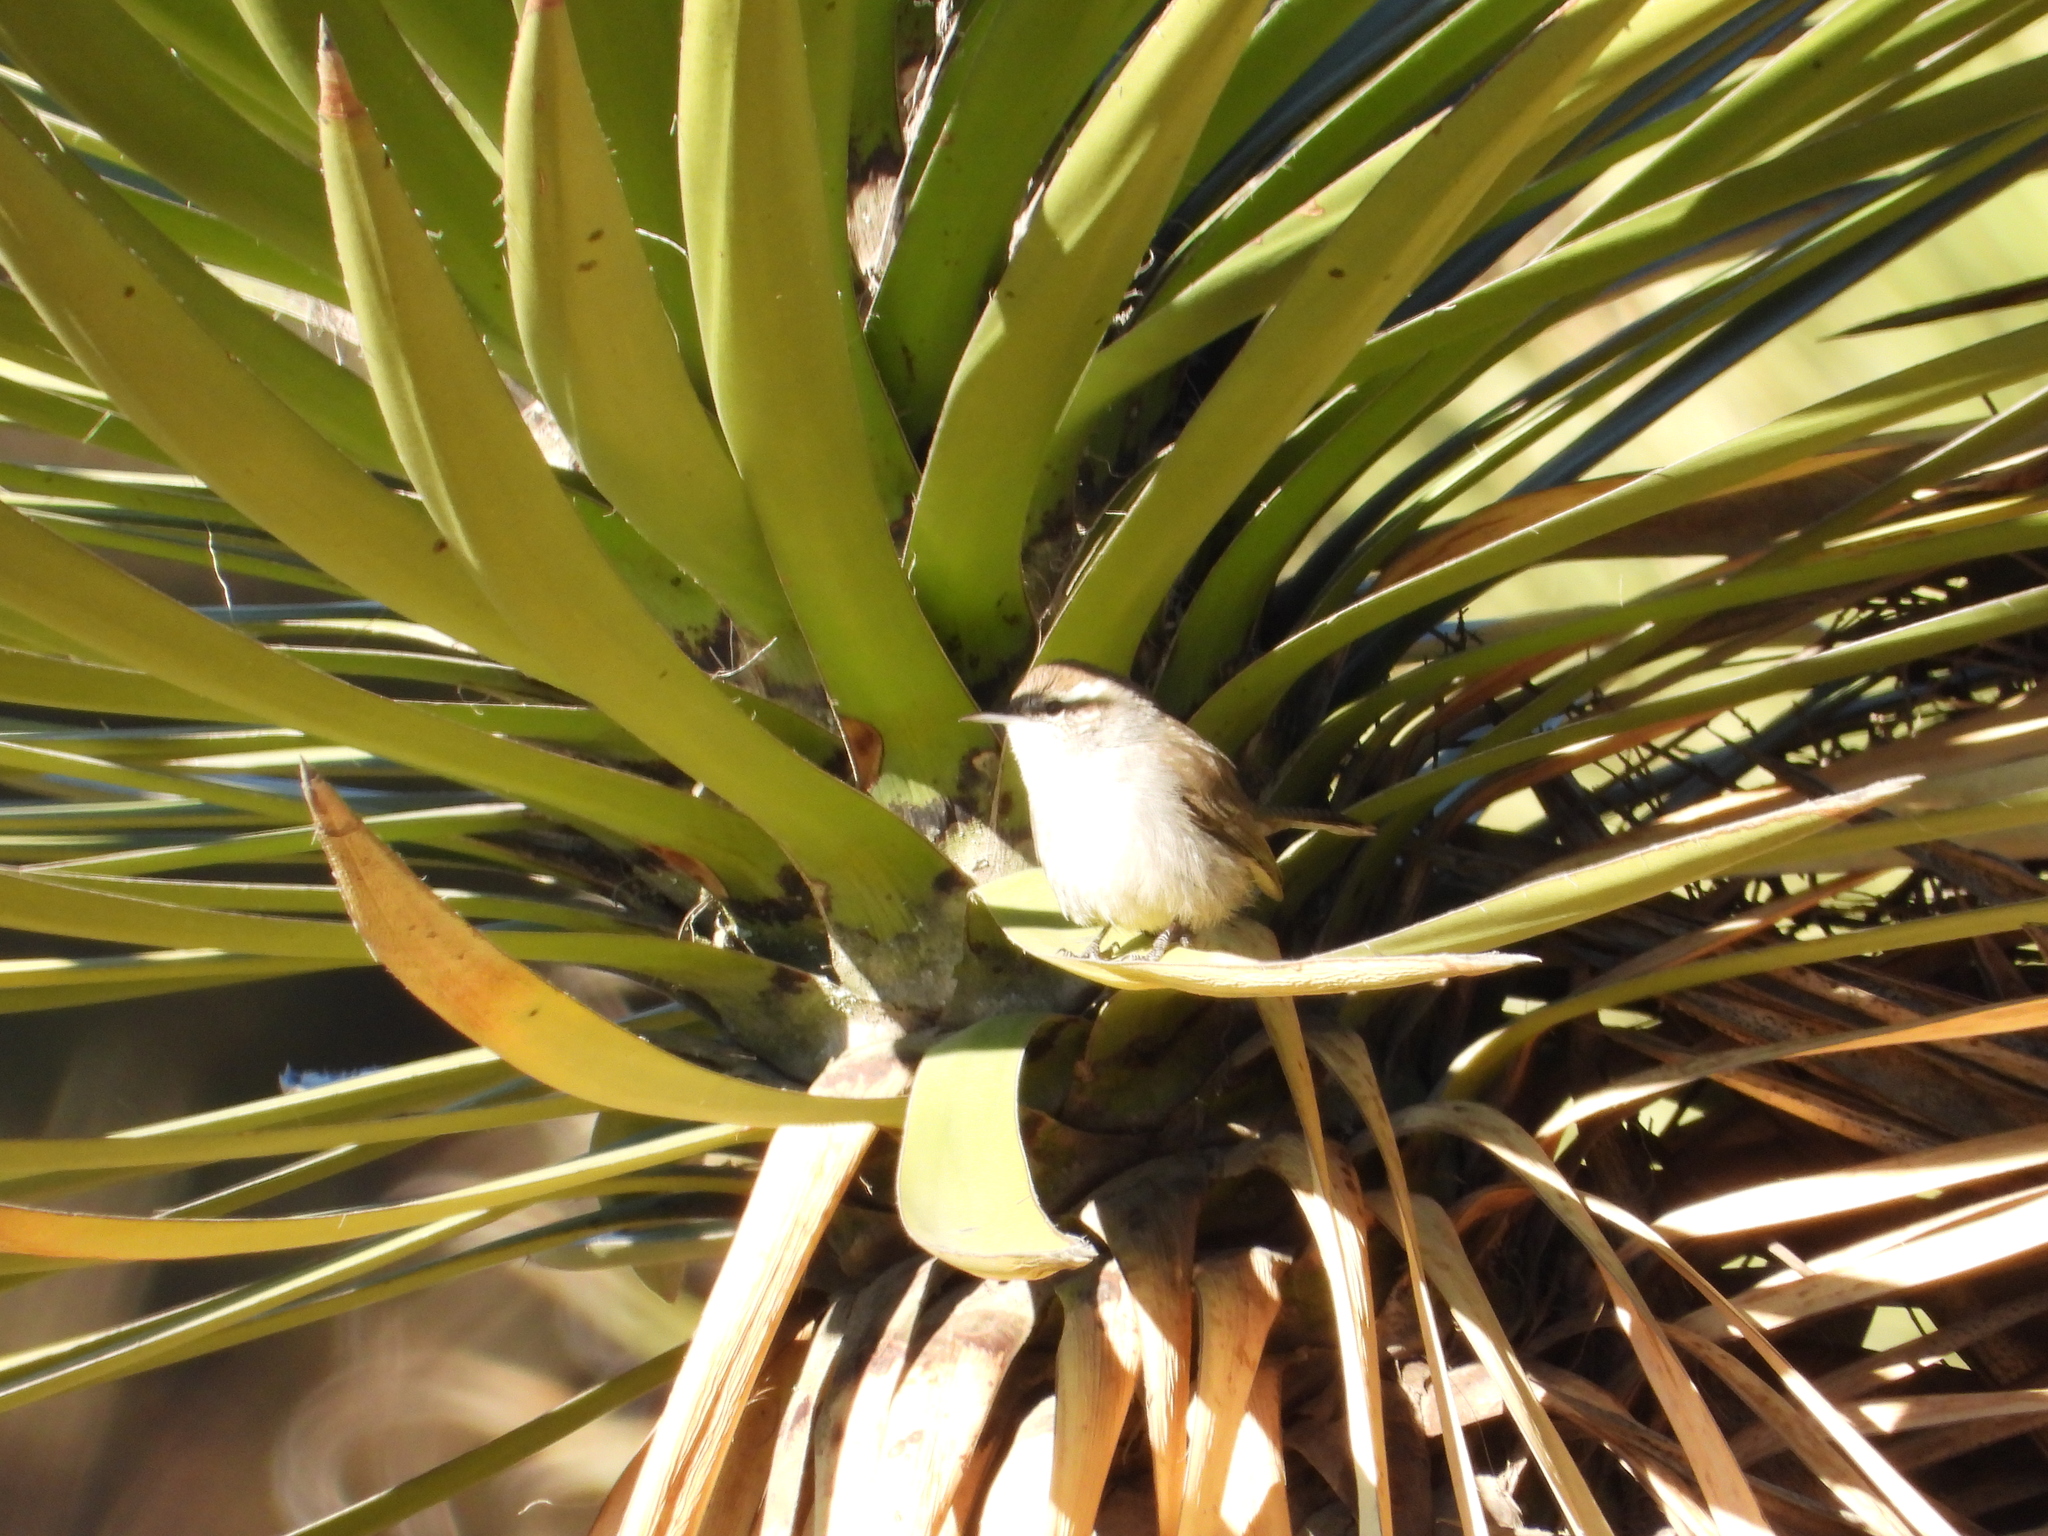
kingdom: Animalia
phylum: Chordata
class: Aves
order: Passeriformes
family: Troglodytidae
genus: Thryomanes
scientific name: Thryomanes bewickii
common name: Bewick's wren
